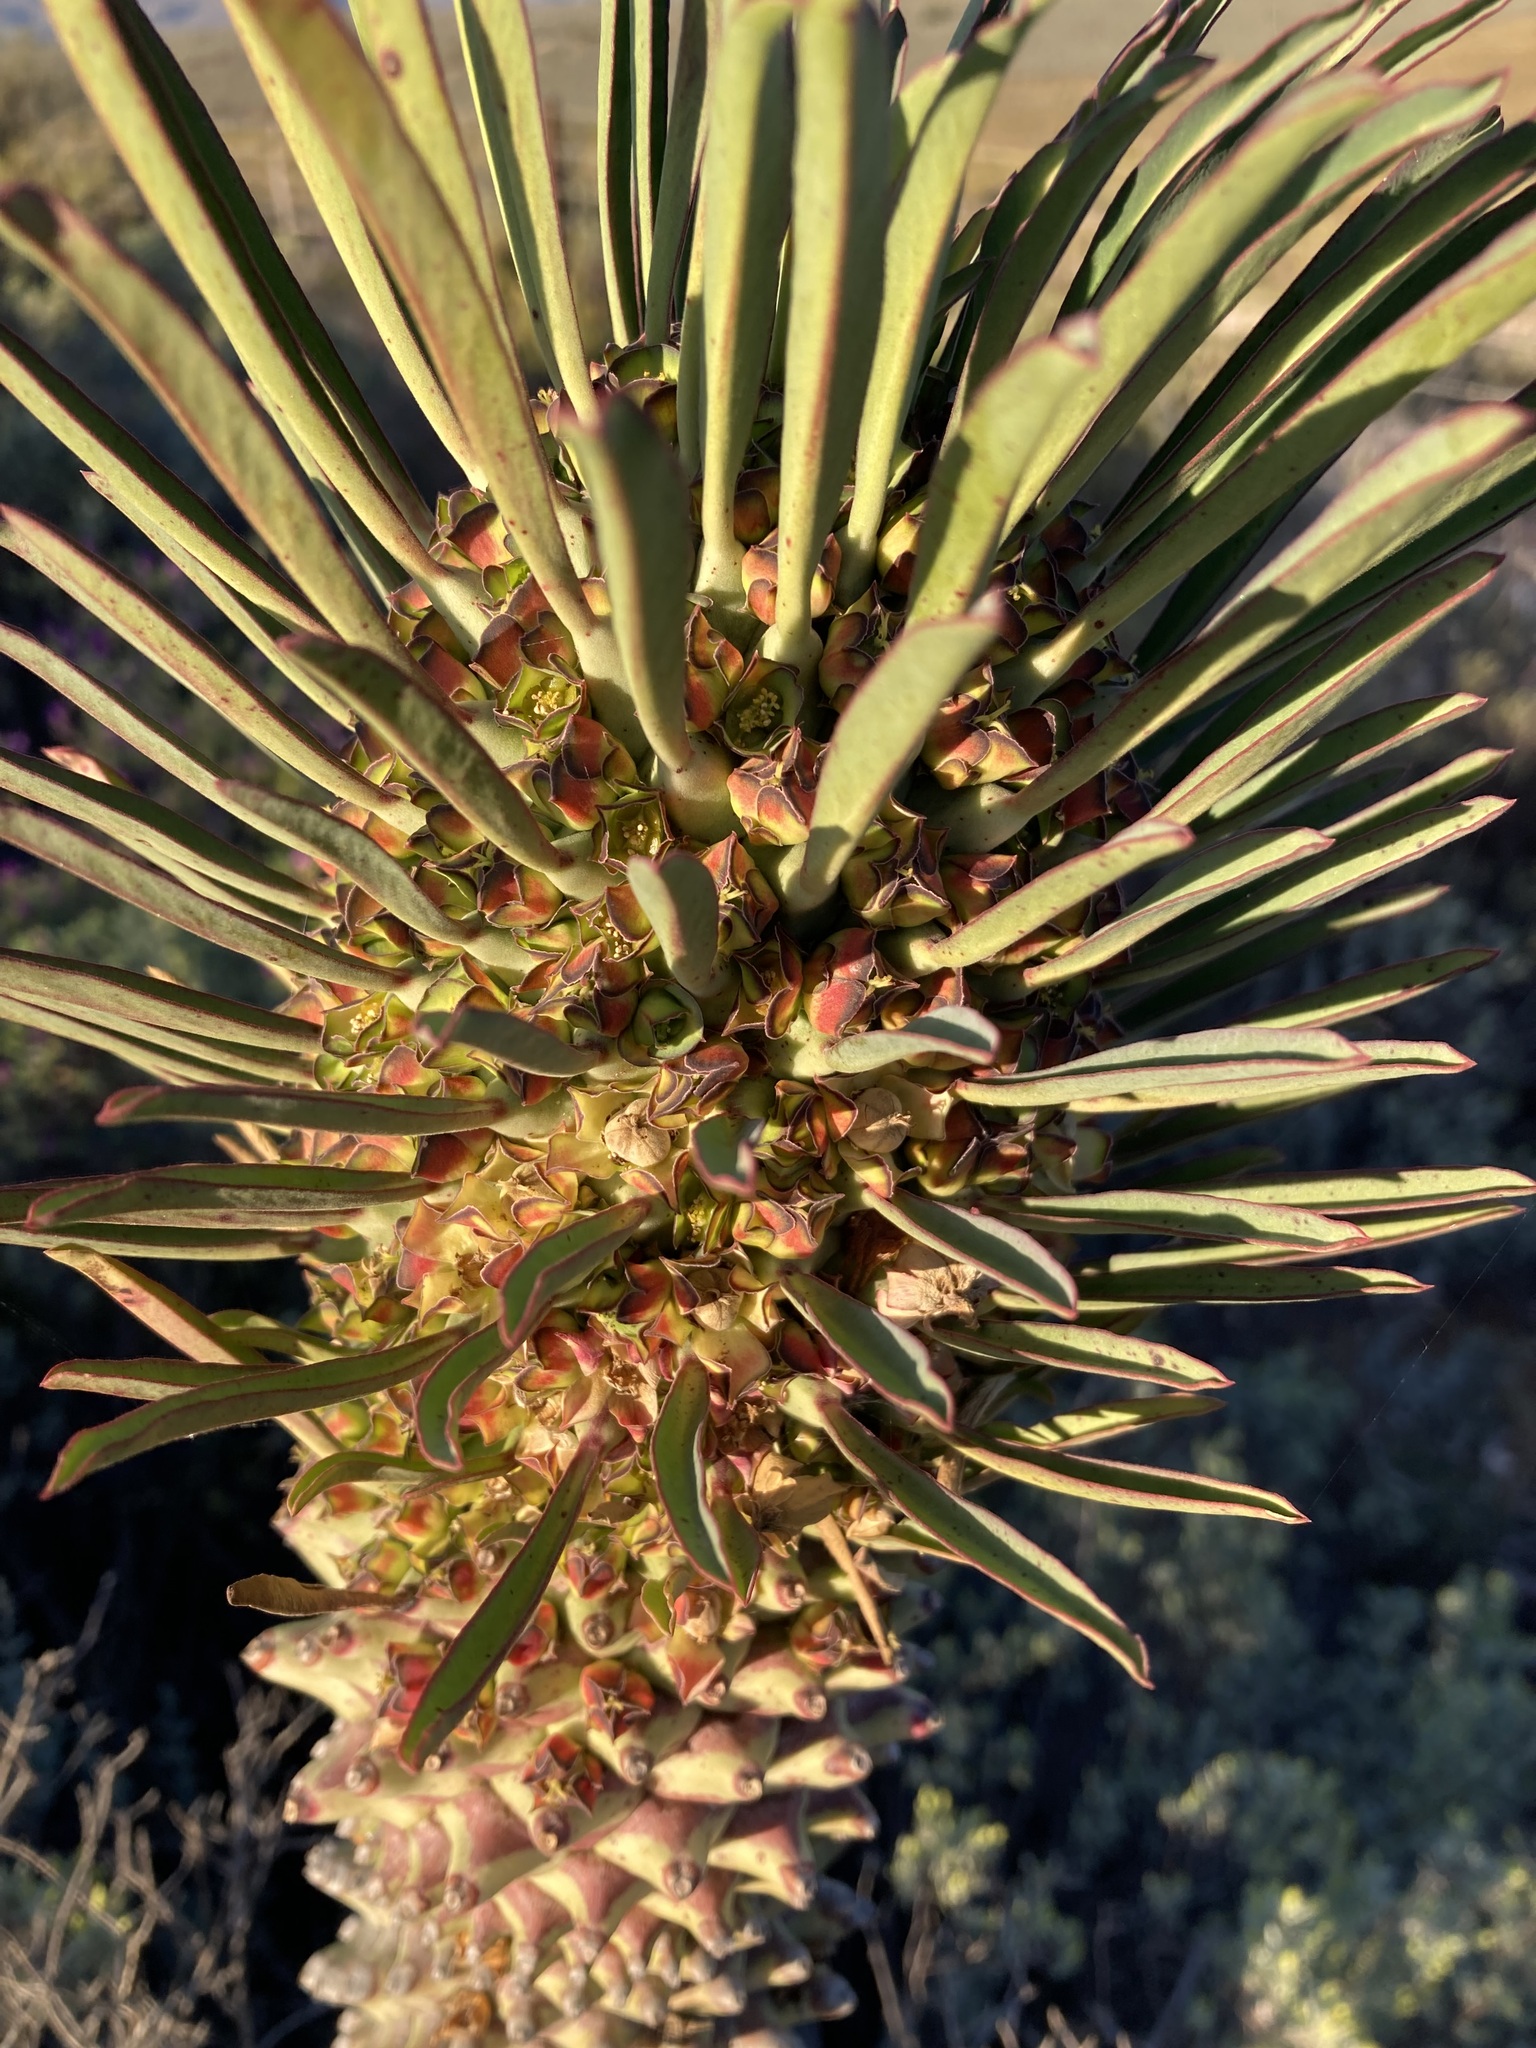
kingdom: Plantae
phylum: Tracheophyta
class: Magnoliopsida
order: Malpighiales
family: Euphorbiaceae
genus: Euphorbia
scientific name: Euphorbia clandestina
